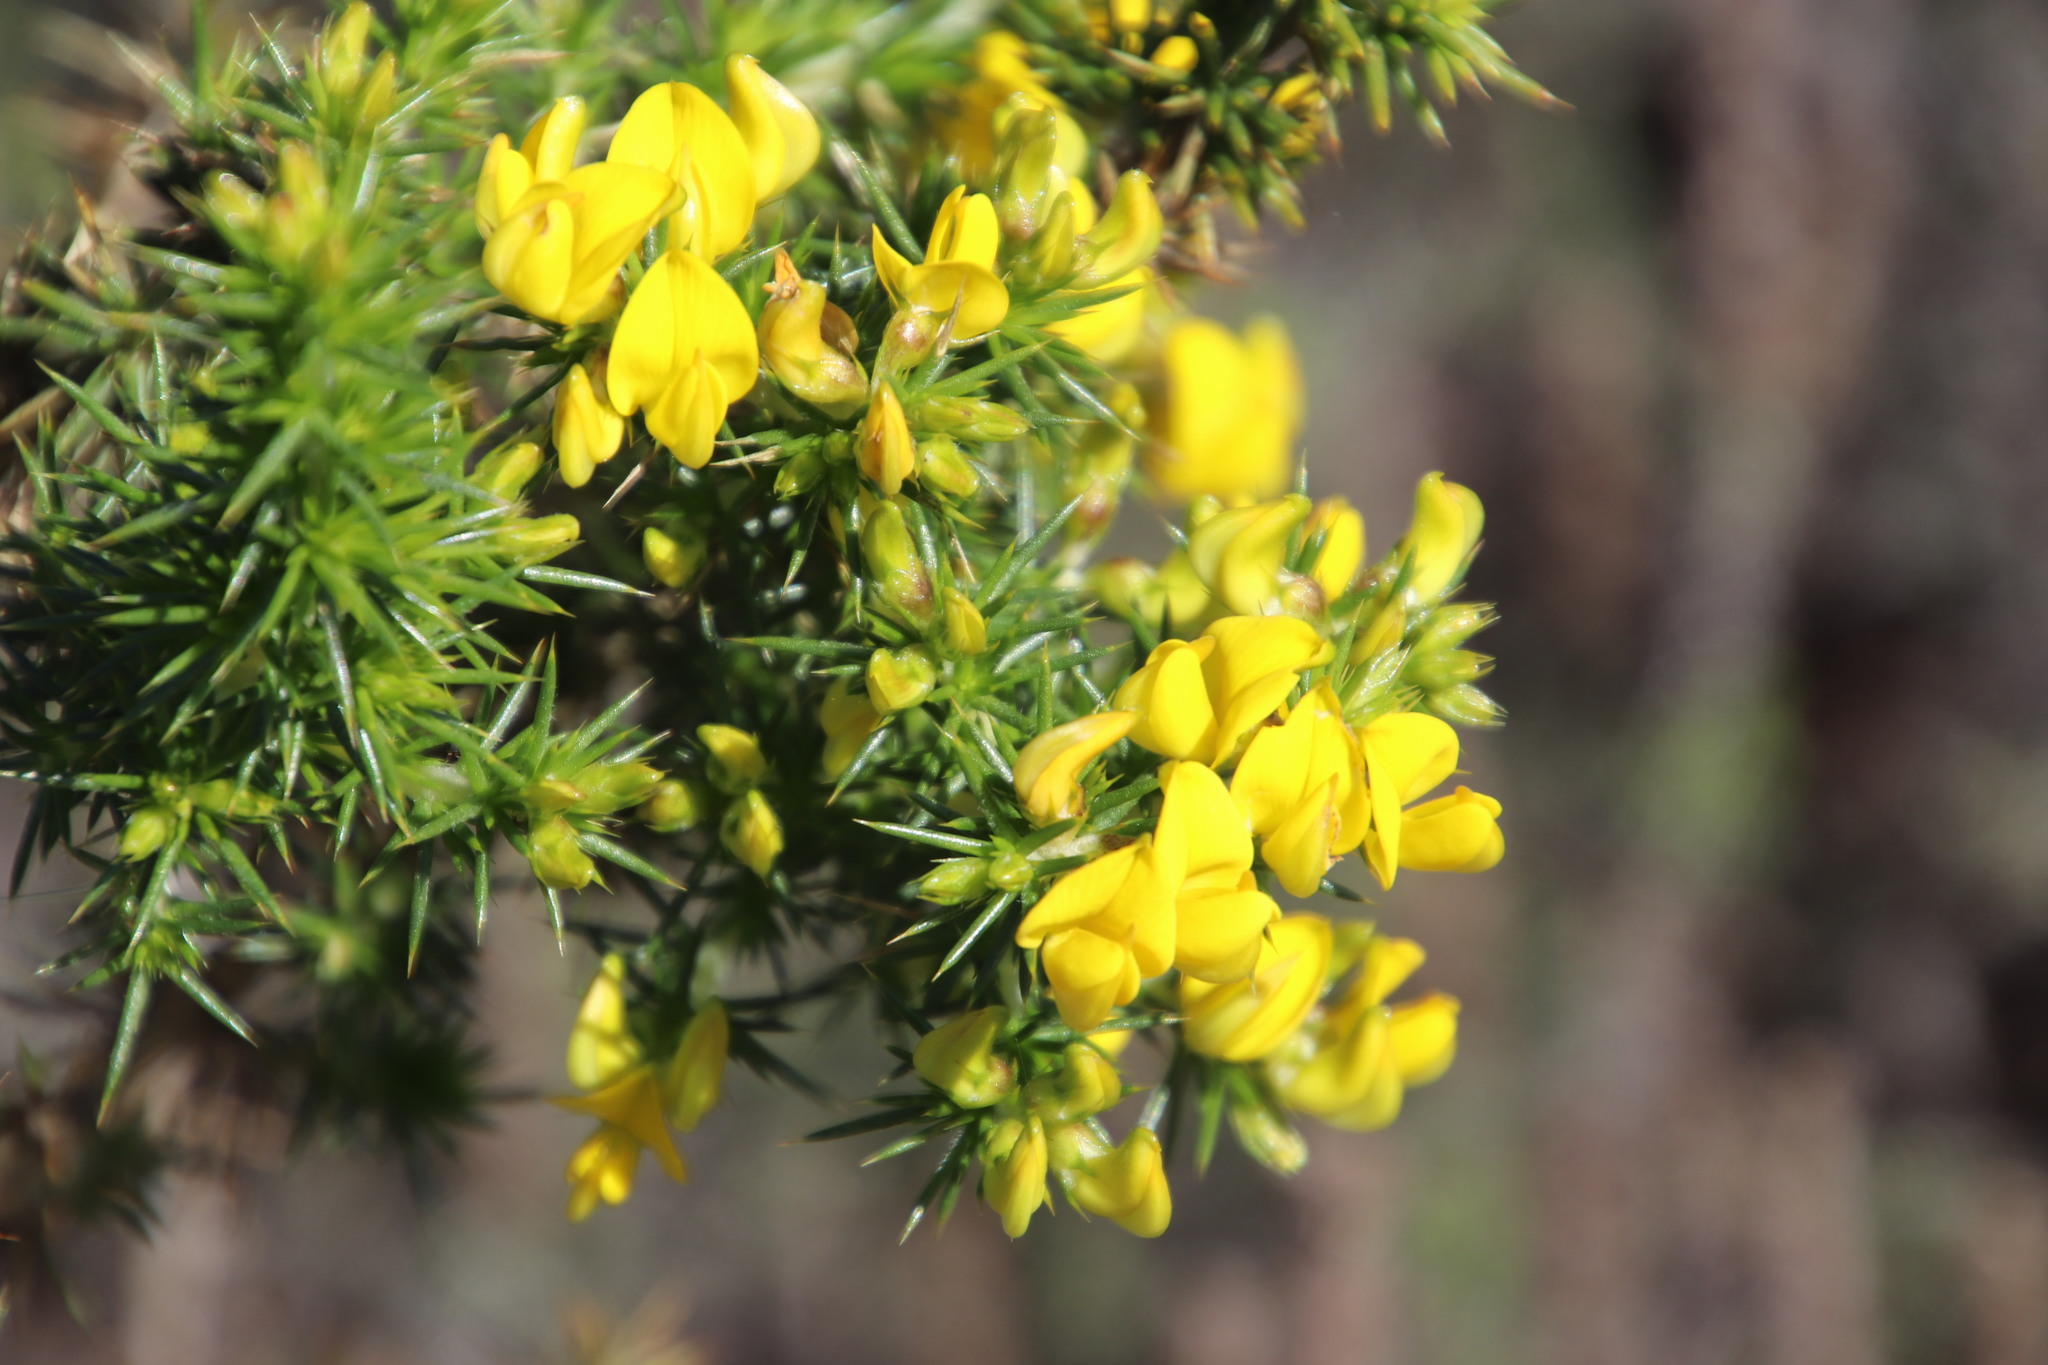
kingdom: Plantae
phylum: Tracheophyta
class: Magnoliopsida
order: Fabales
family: Fabaceae
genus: Aspalathus
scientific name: Aspalathus astroites
